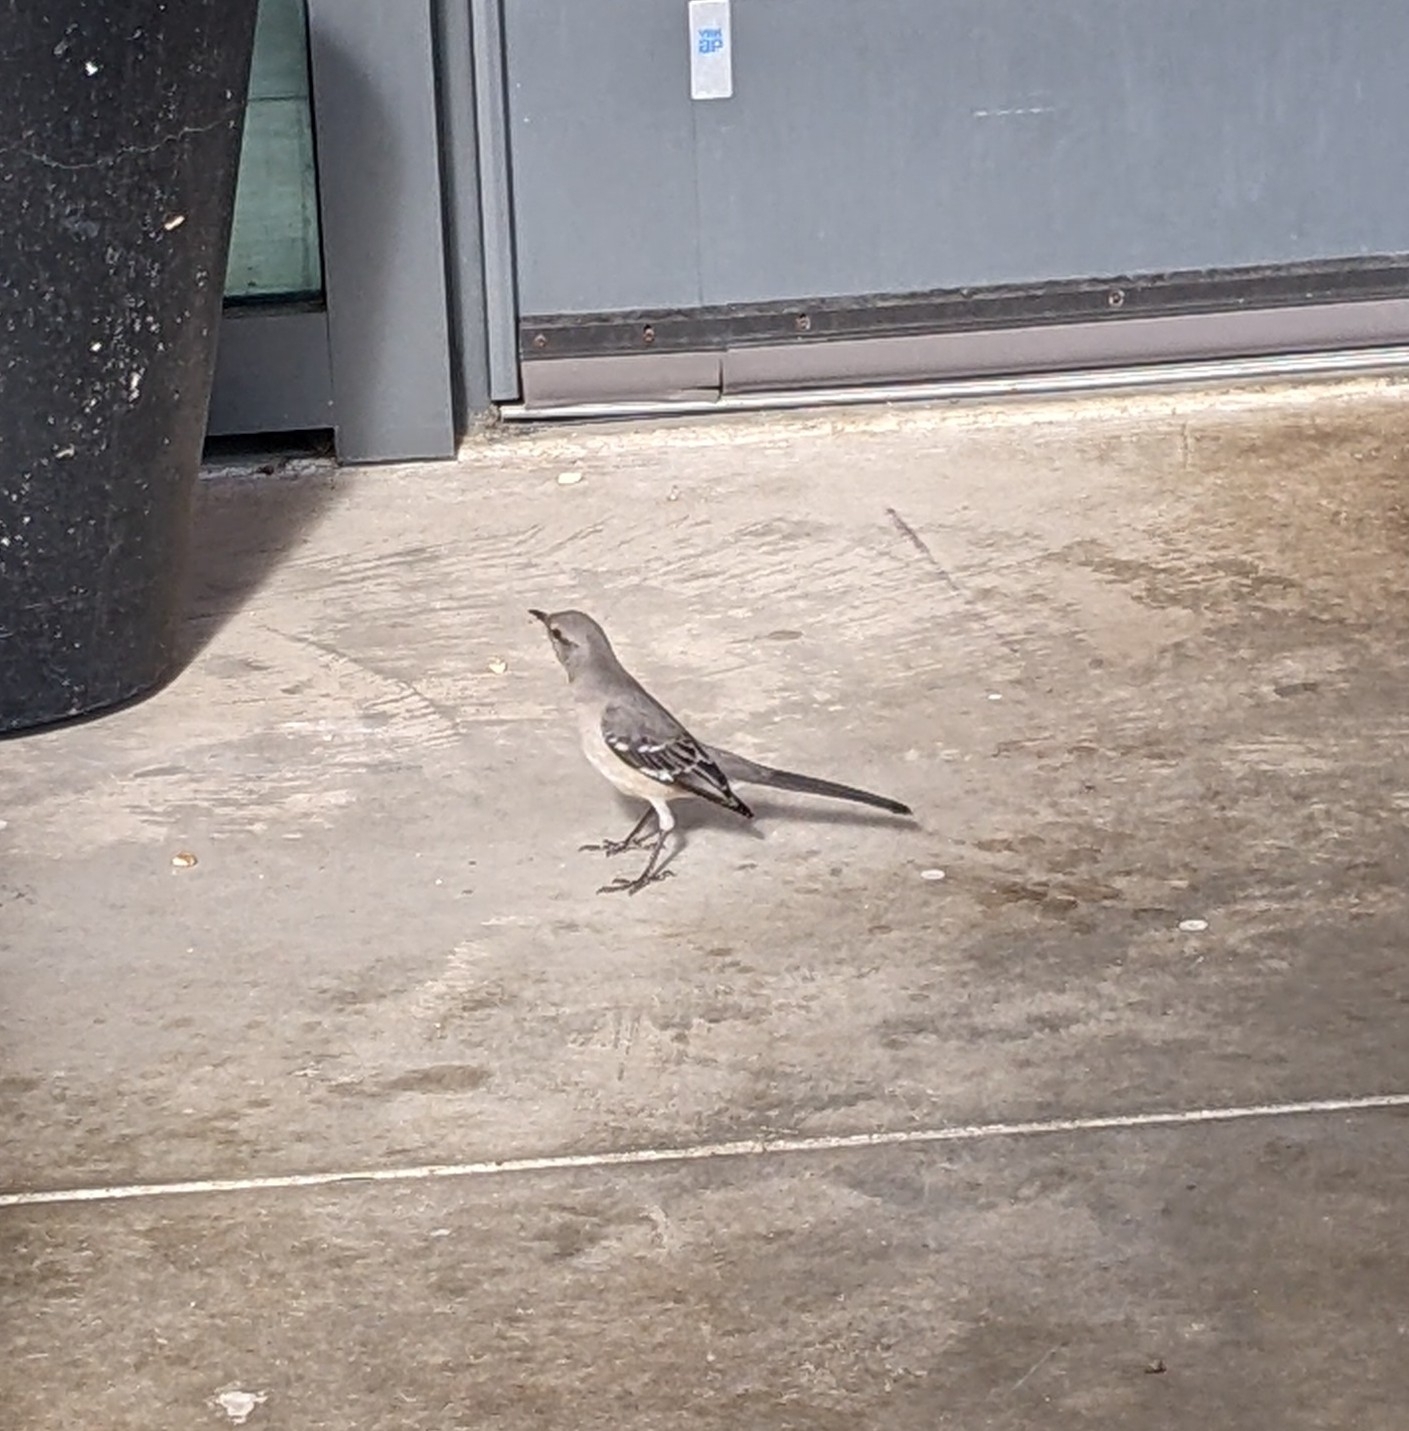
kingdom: Animalia
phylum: Chordata
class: Aves
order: Passeriformes
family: Mimidae
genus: Mimus
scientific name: Mimus polyglottos
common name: Northern mockingbird
